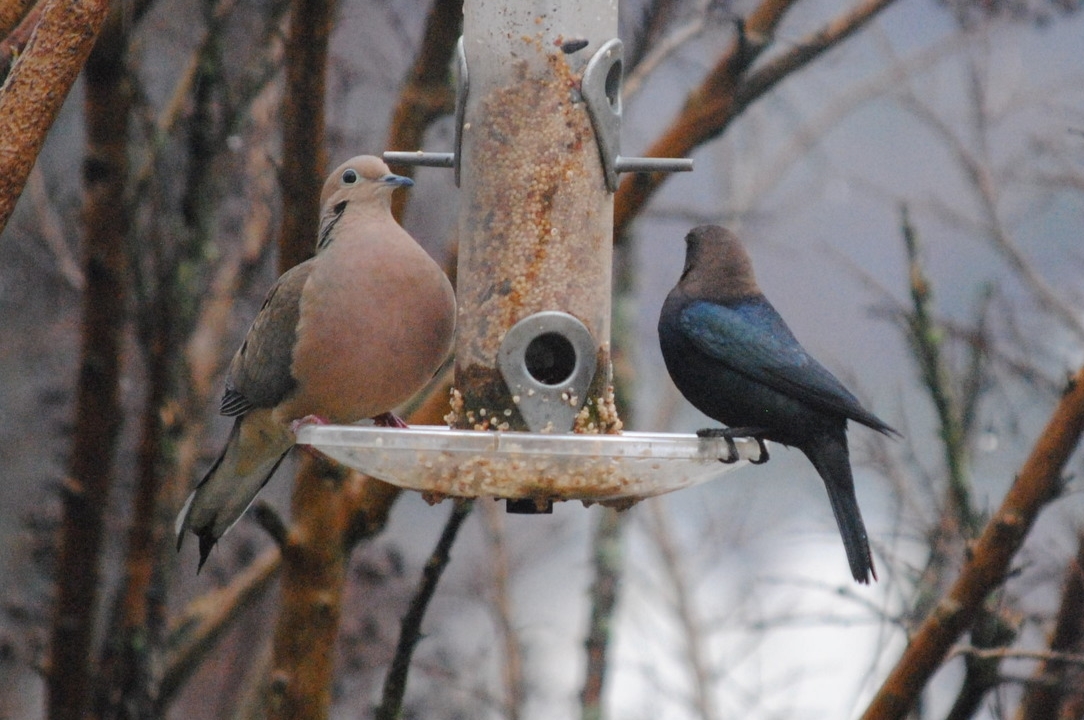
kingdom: Animalia
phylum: Chordata
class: Aves
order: Passeriformes
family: Icteridae
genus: Molothrus
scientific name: Molothrus ater
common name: Brown-headed cowbird
